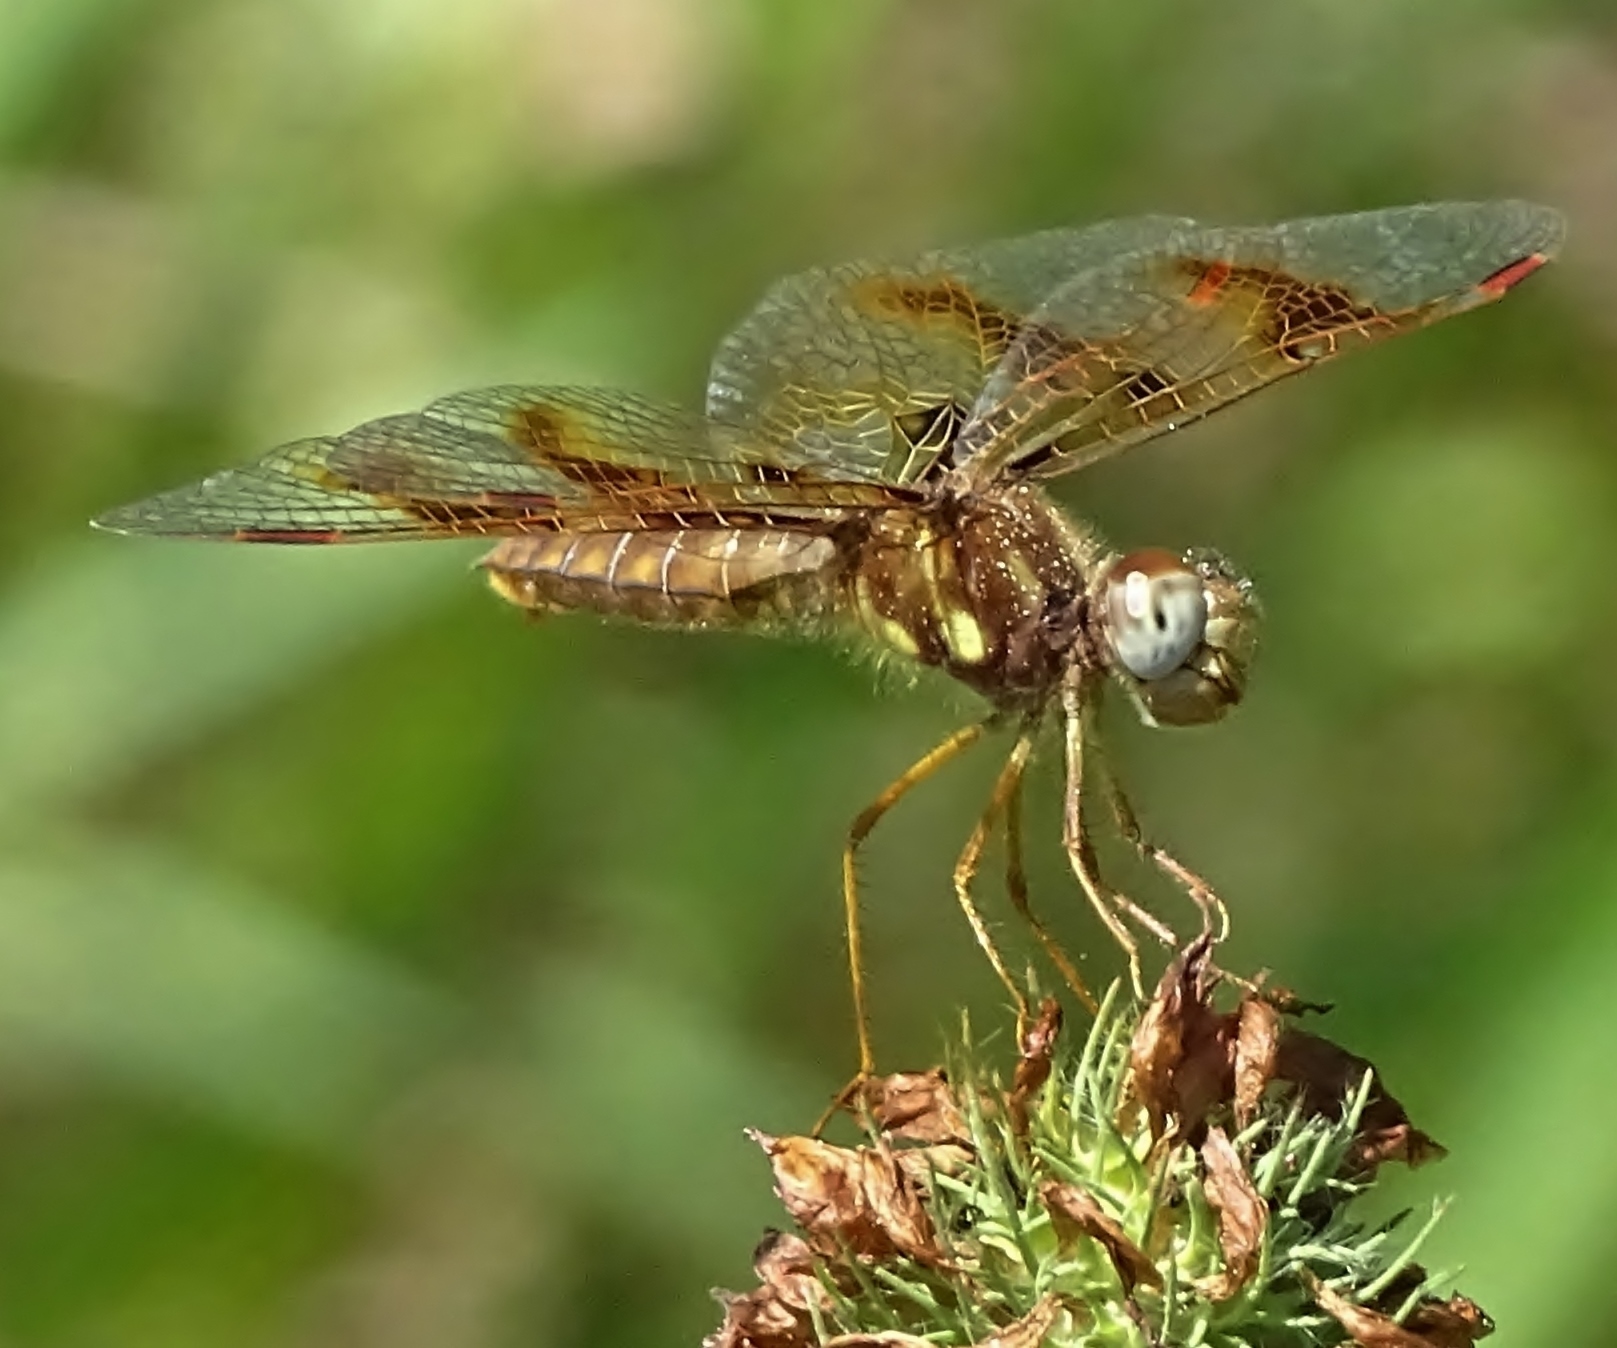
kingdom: Animalia
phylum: Arthropoda
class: Insecta
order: Odonata
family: Libellulidae
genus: Perithemis
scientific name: Perithemis tenera
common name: Eastern amberwing
